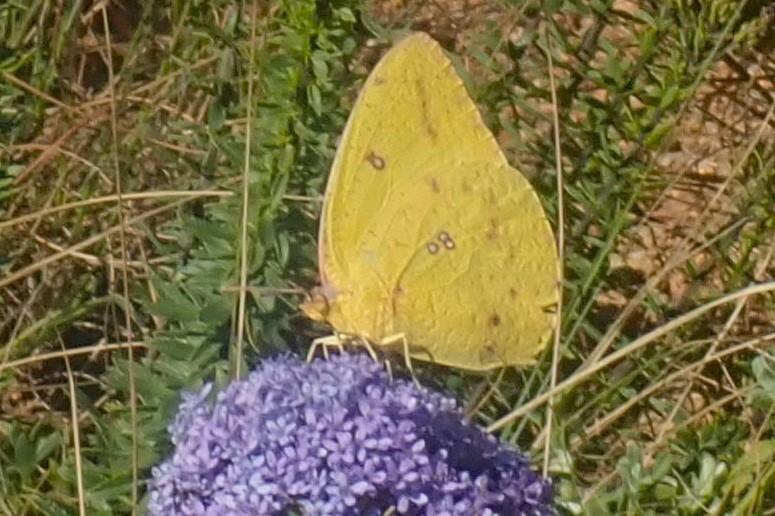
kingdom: Animalia
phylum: Arthropoda
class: Insecta
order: Lepidoptera
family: Pieridae
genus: Catopsilia
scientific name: Catopsilia florella
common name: African migrant
